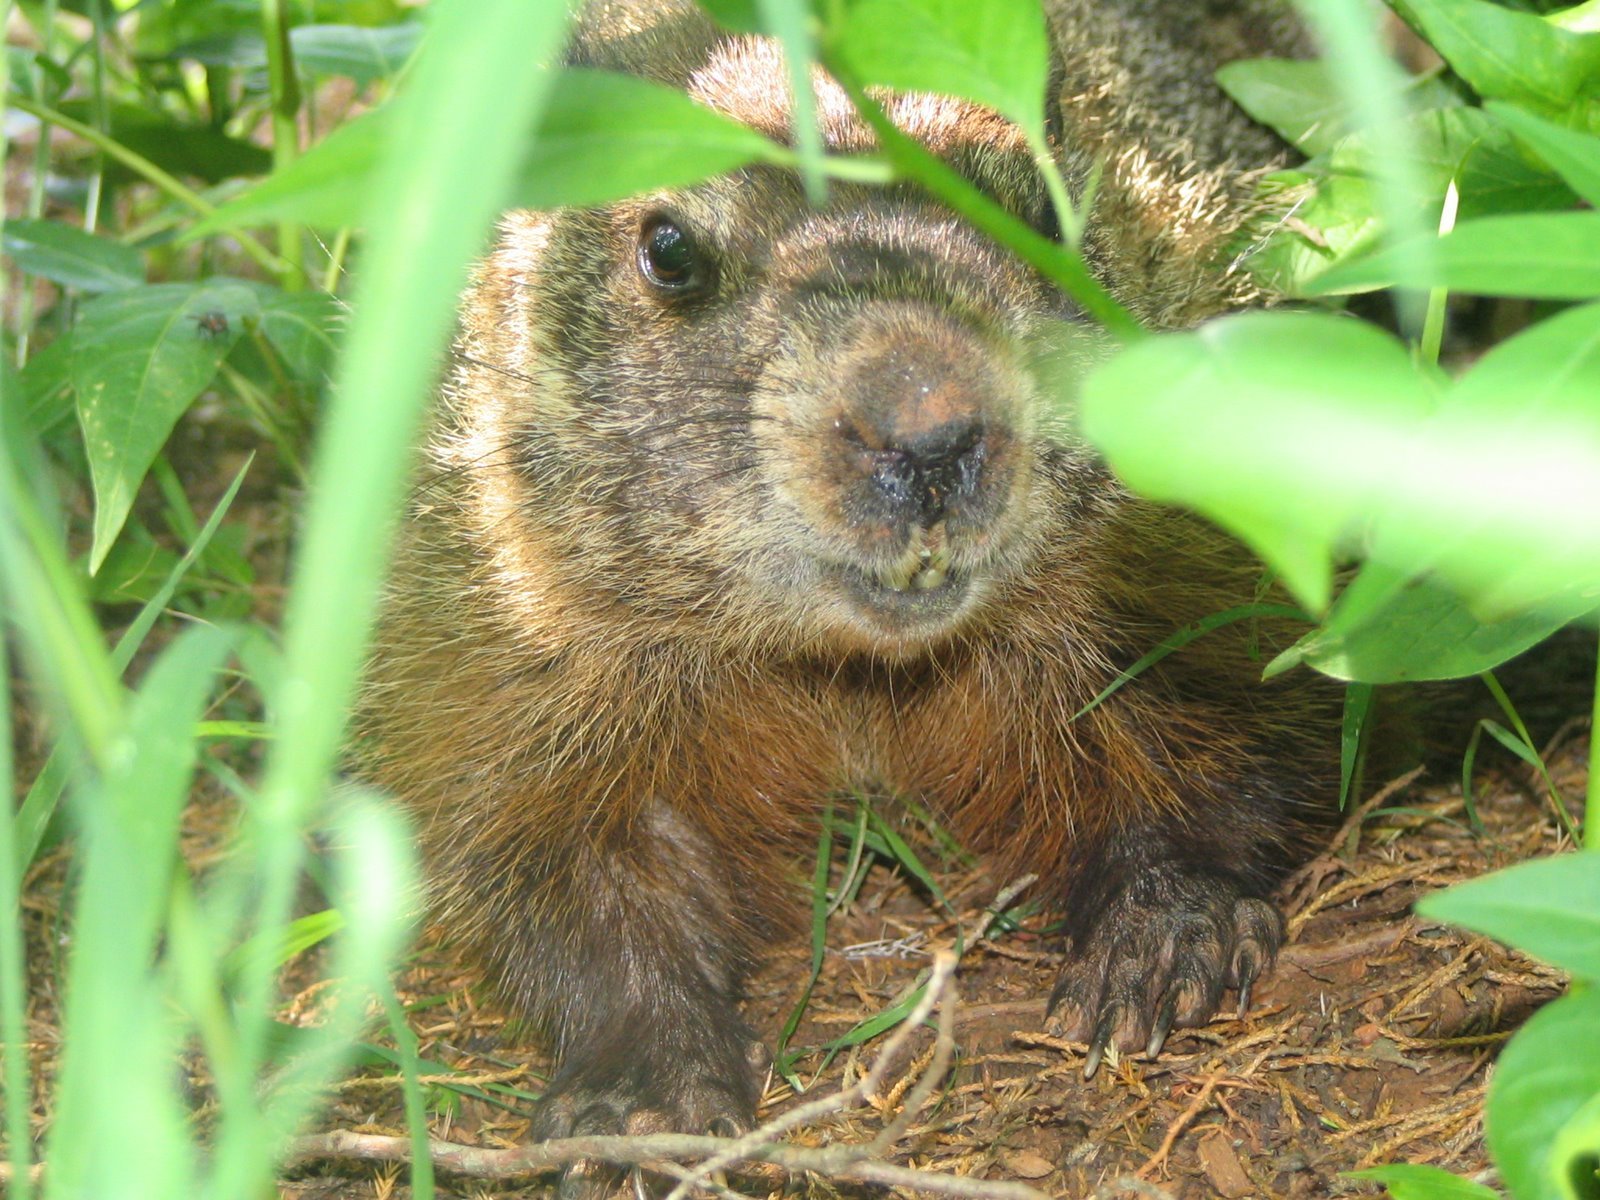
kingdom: Animalia
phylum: Chordata
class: Mammalia
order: Rodentia
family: Sciuridae
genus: Marmota
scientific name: Marmota monax
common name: Groundhog
